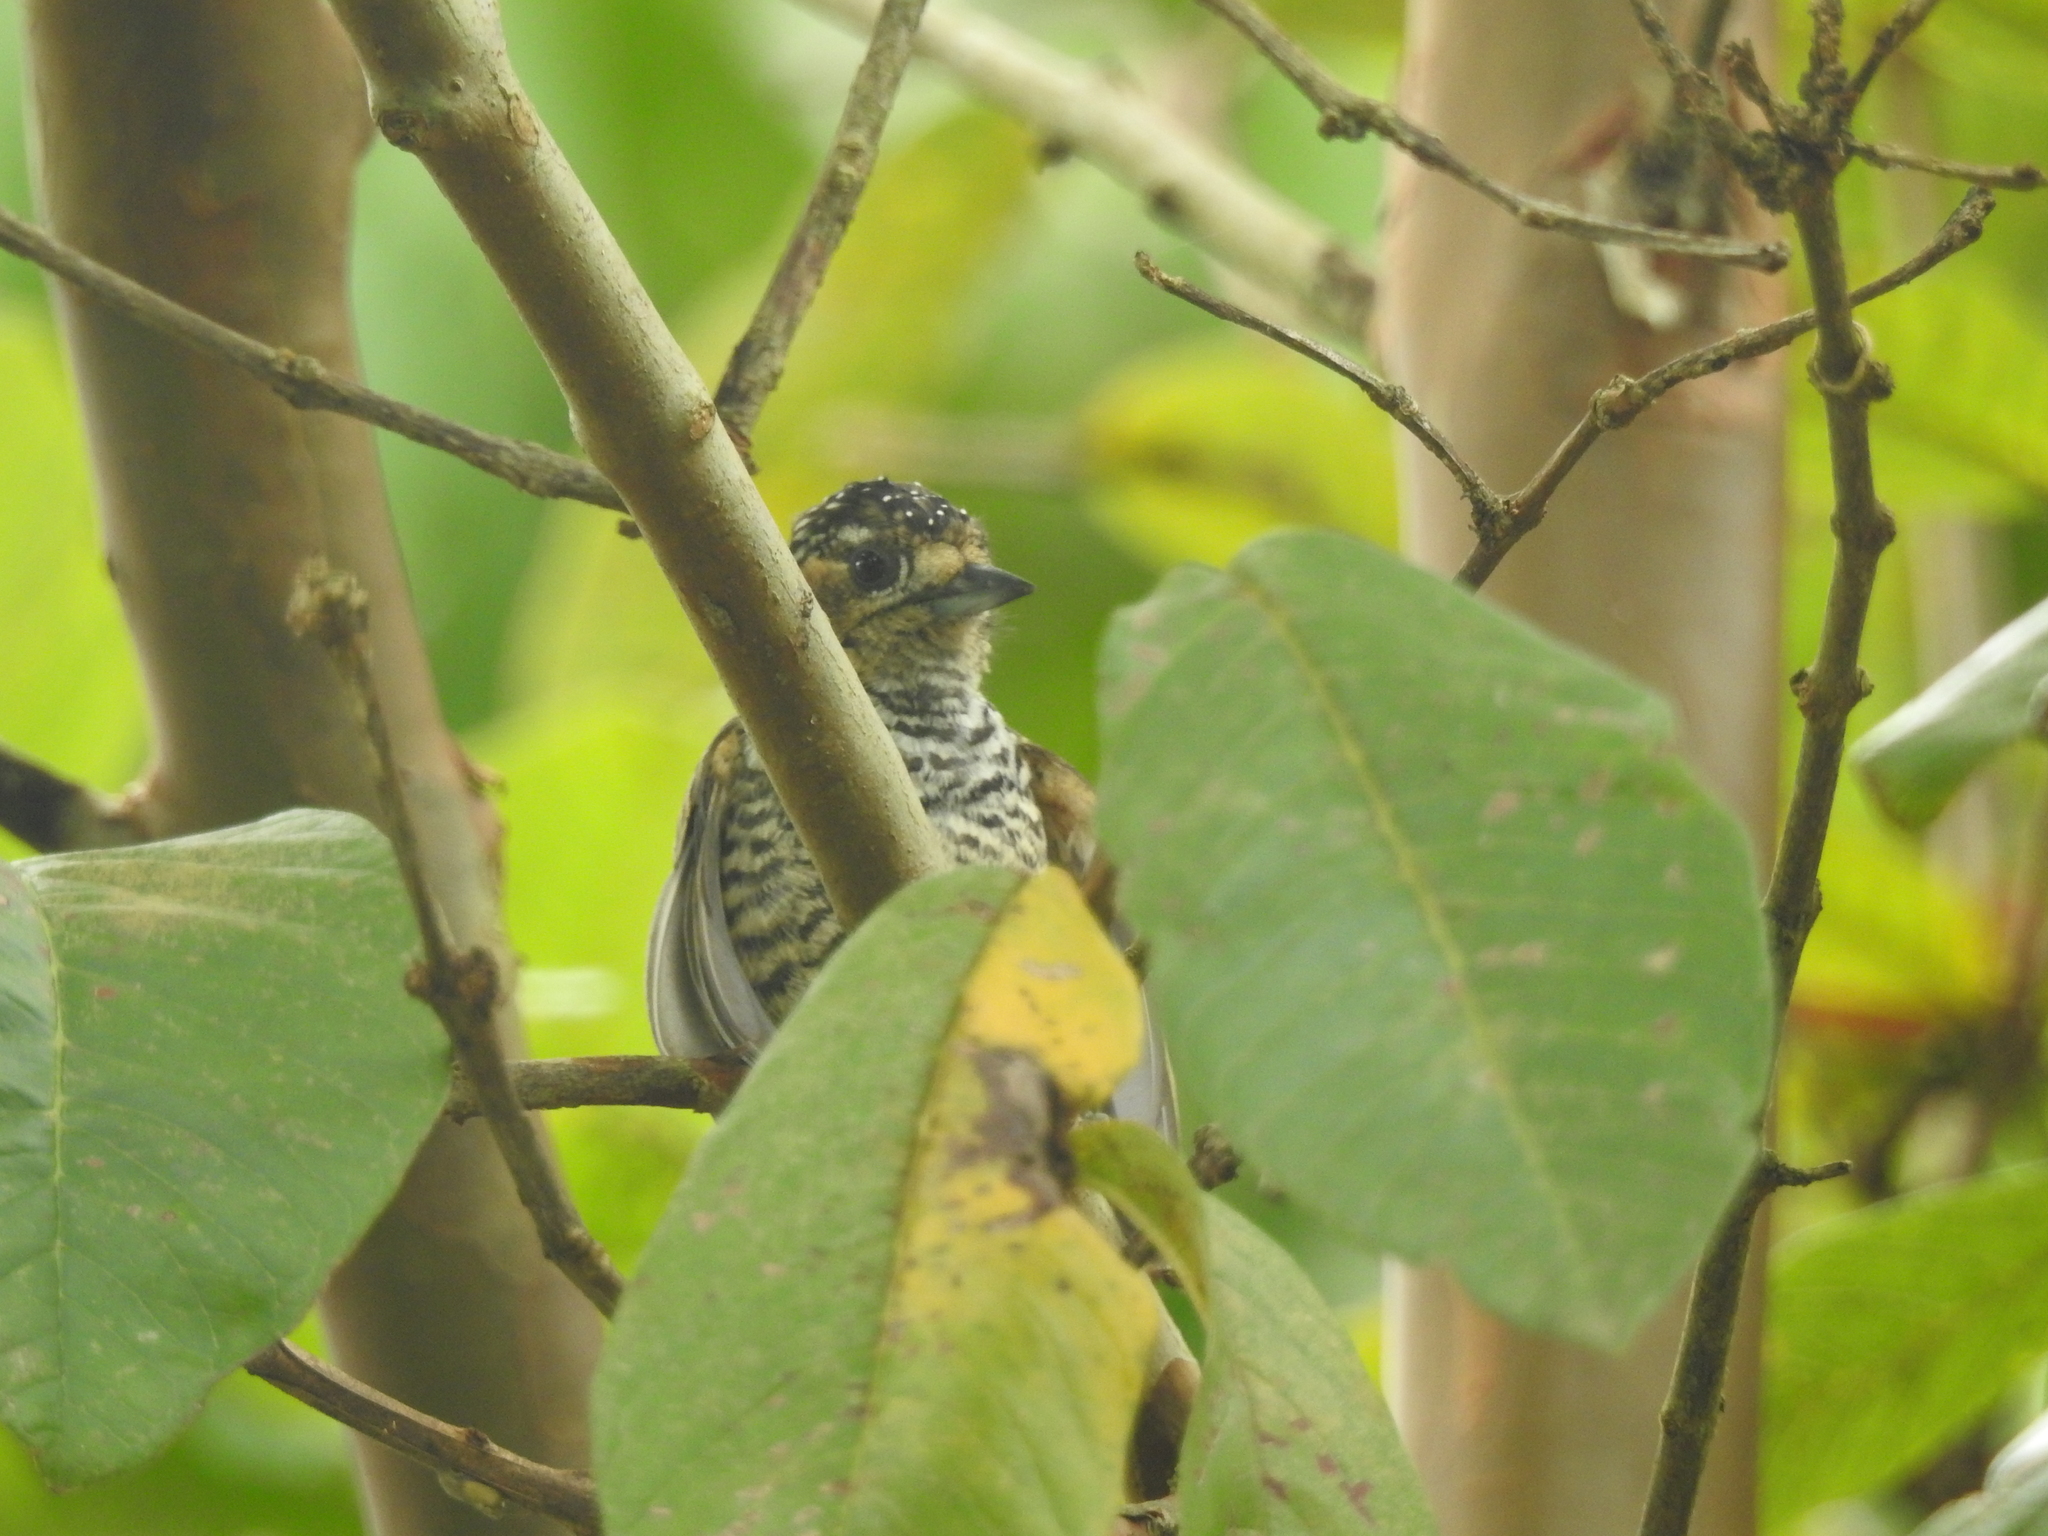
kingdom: Animalia
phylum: Chordata
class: Aves
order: Piciformes
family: Picidae
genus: Picumnus
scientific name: Picumnus temminckii
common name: Ochre-collared piculet
